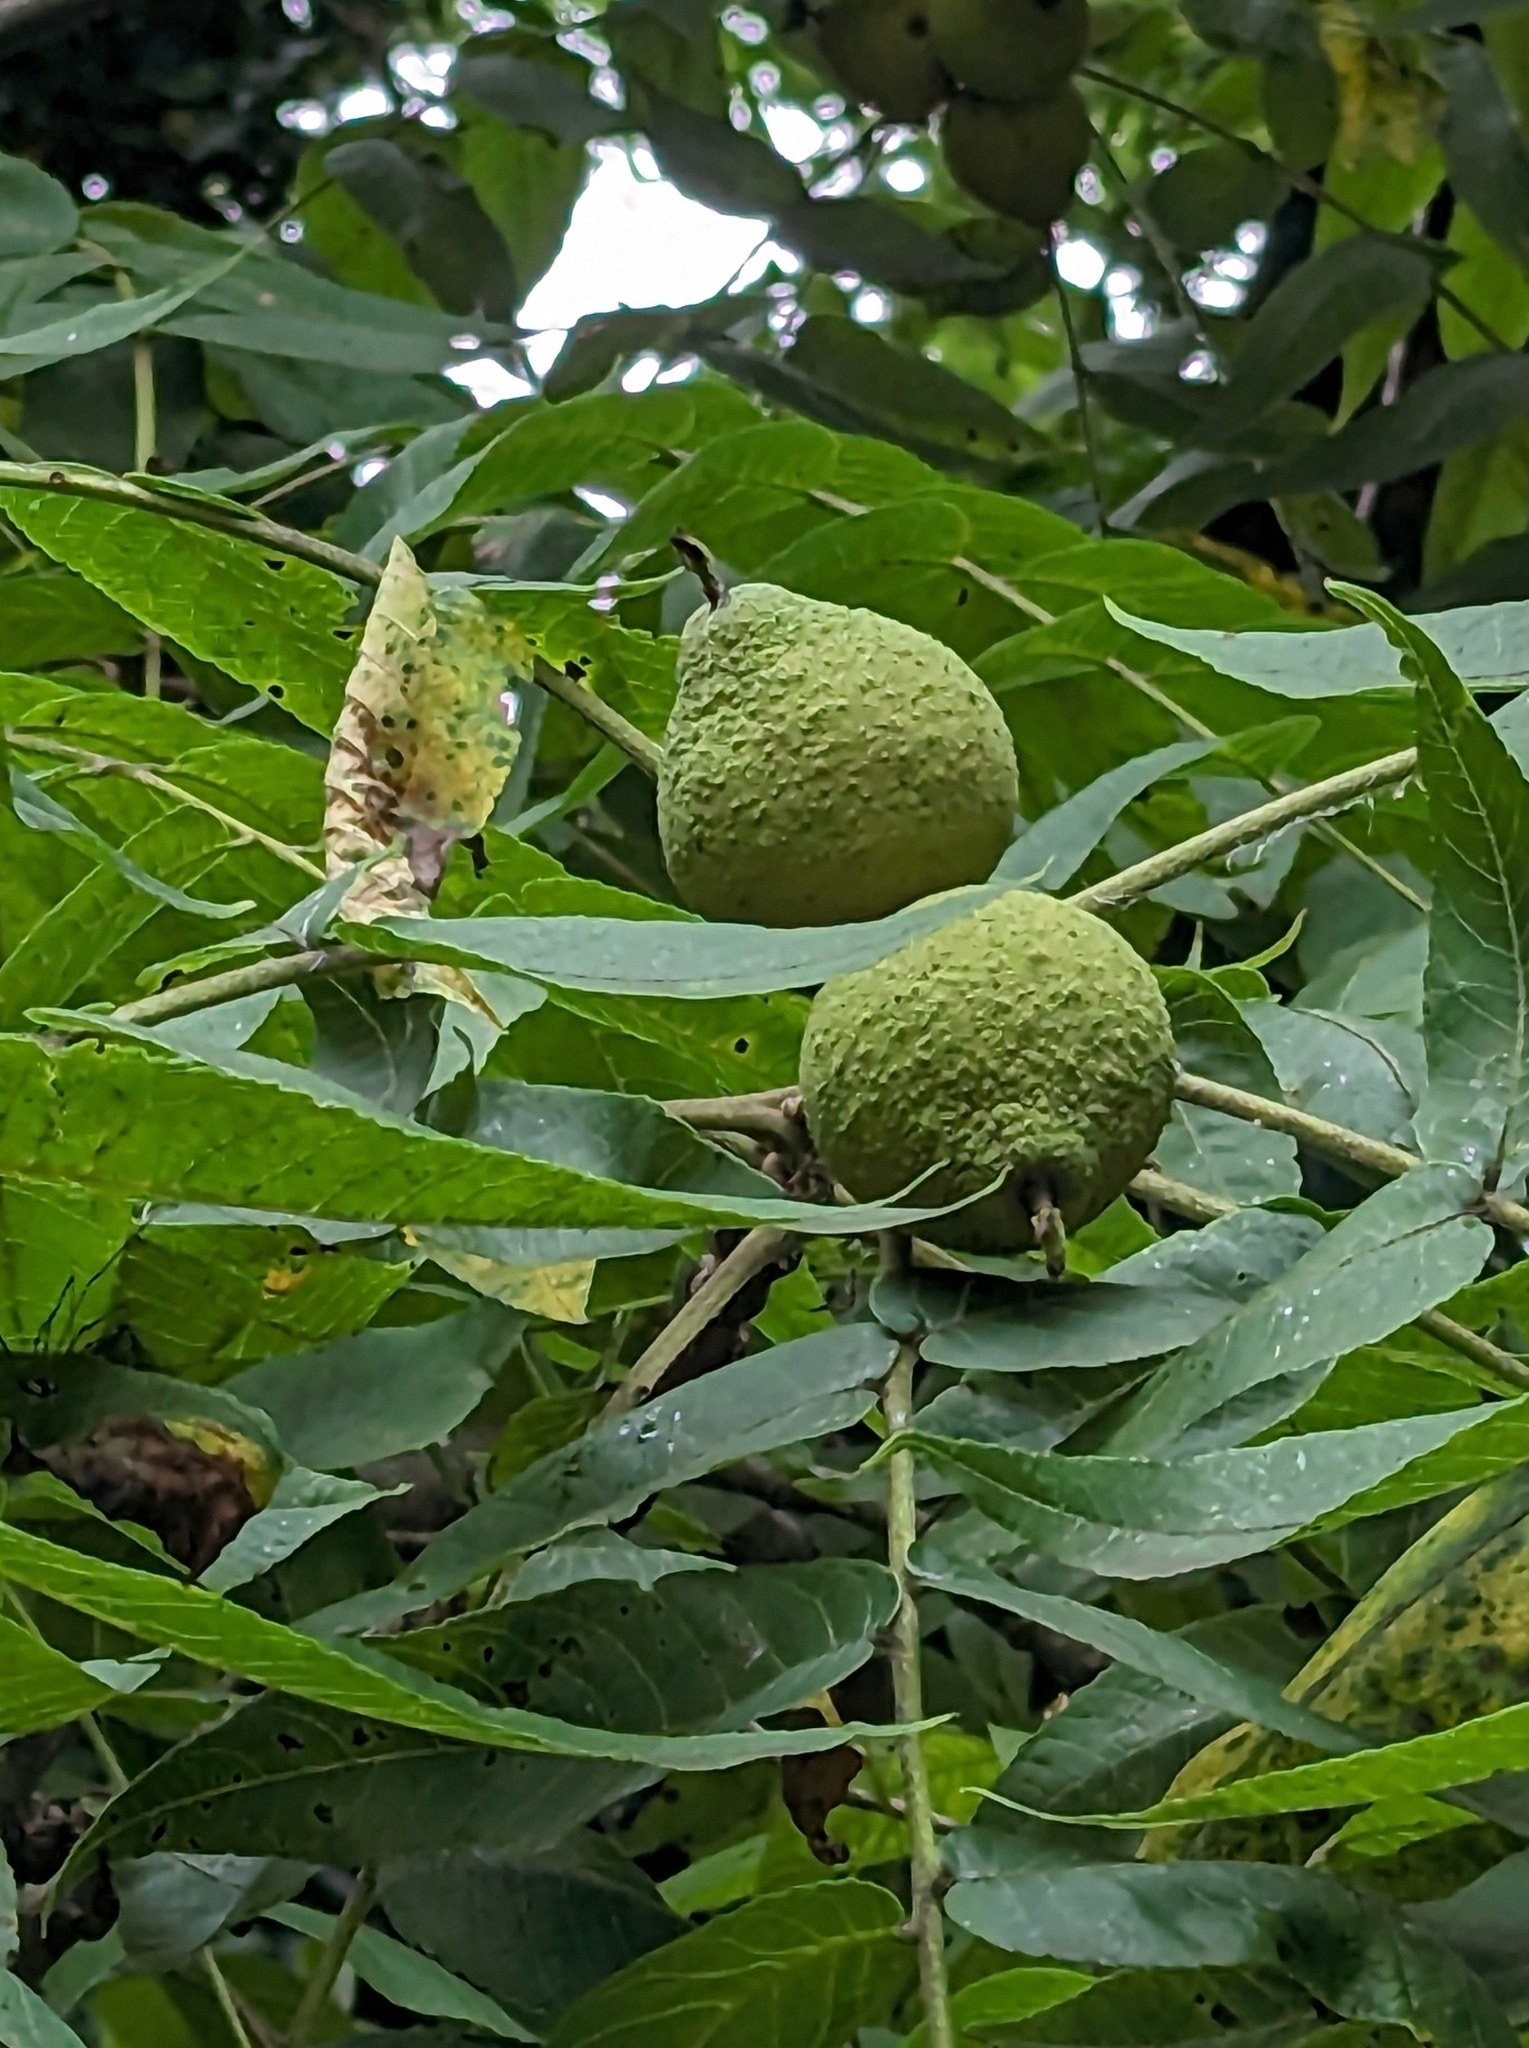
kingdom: Plantae
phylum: Tracheophyta
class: Magnoliopsida
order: Fagales
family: Juglandaceae
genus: Juglans
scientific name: Juglans nigra
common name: Black walnut
